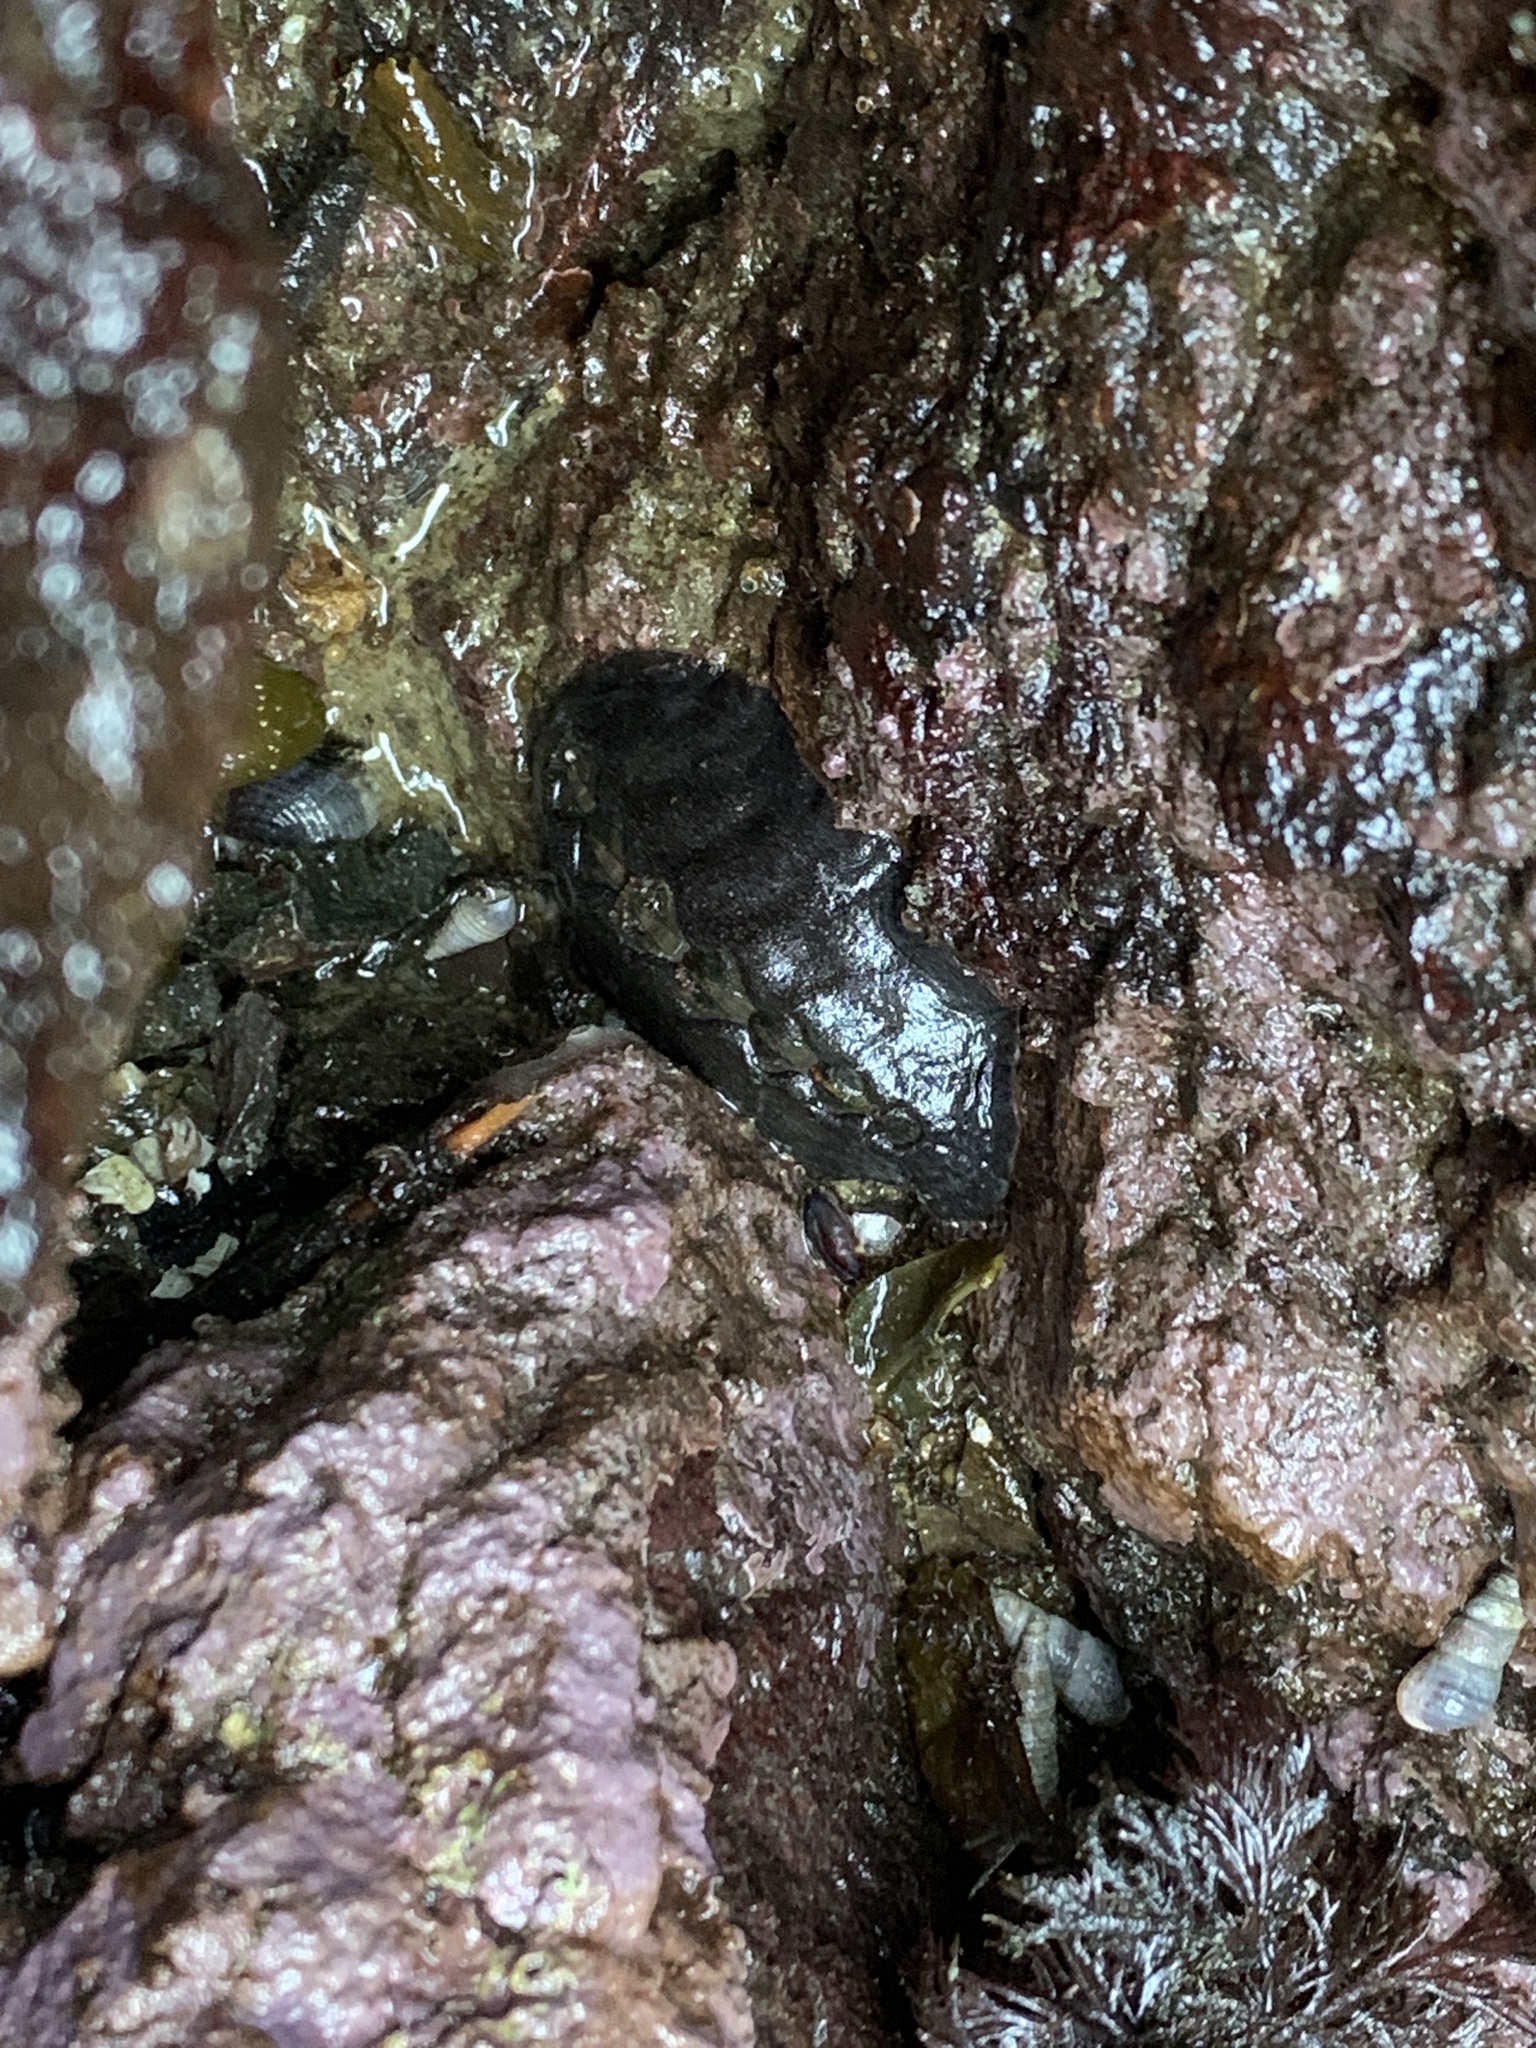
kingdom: Animalia
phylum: Mollusca
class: Polyplacophora
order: Chitonida
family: Mopaliidae
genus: Katharina
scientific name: Katharina tunicata
